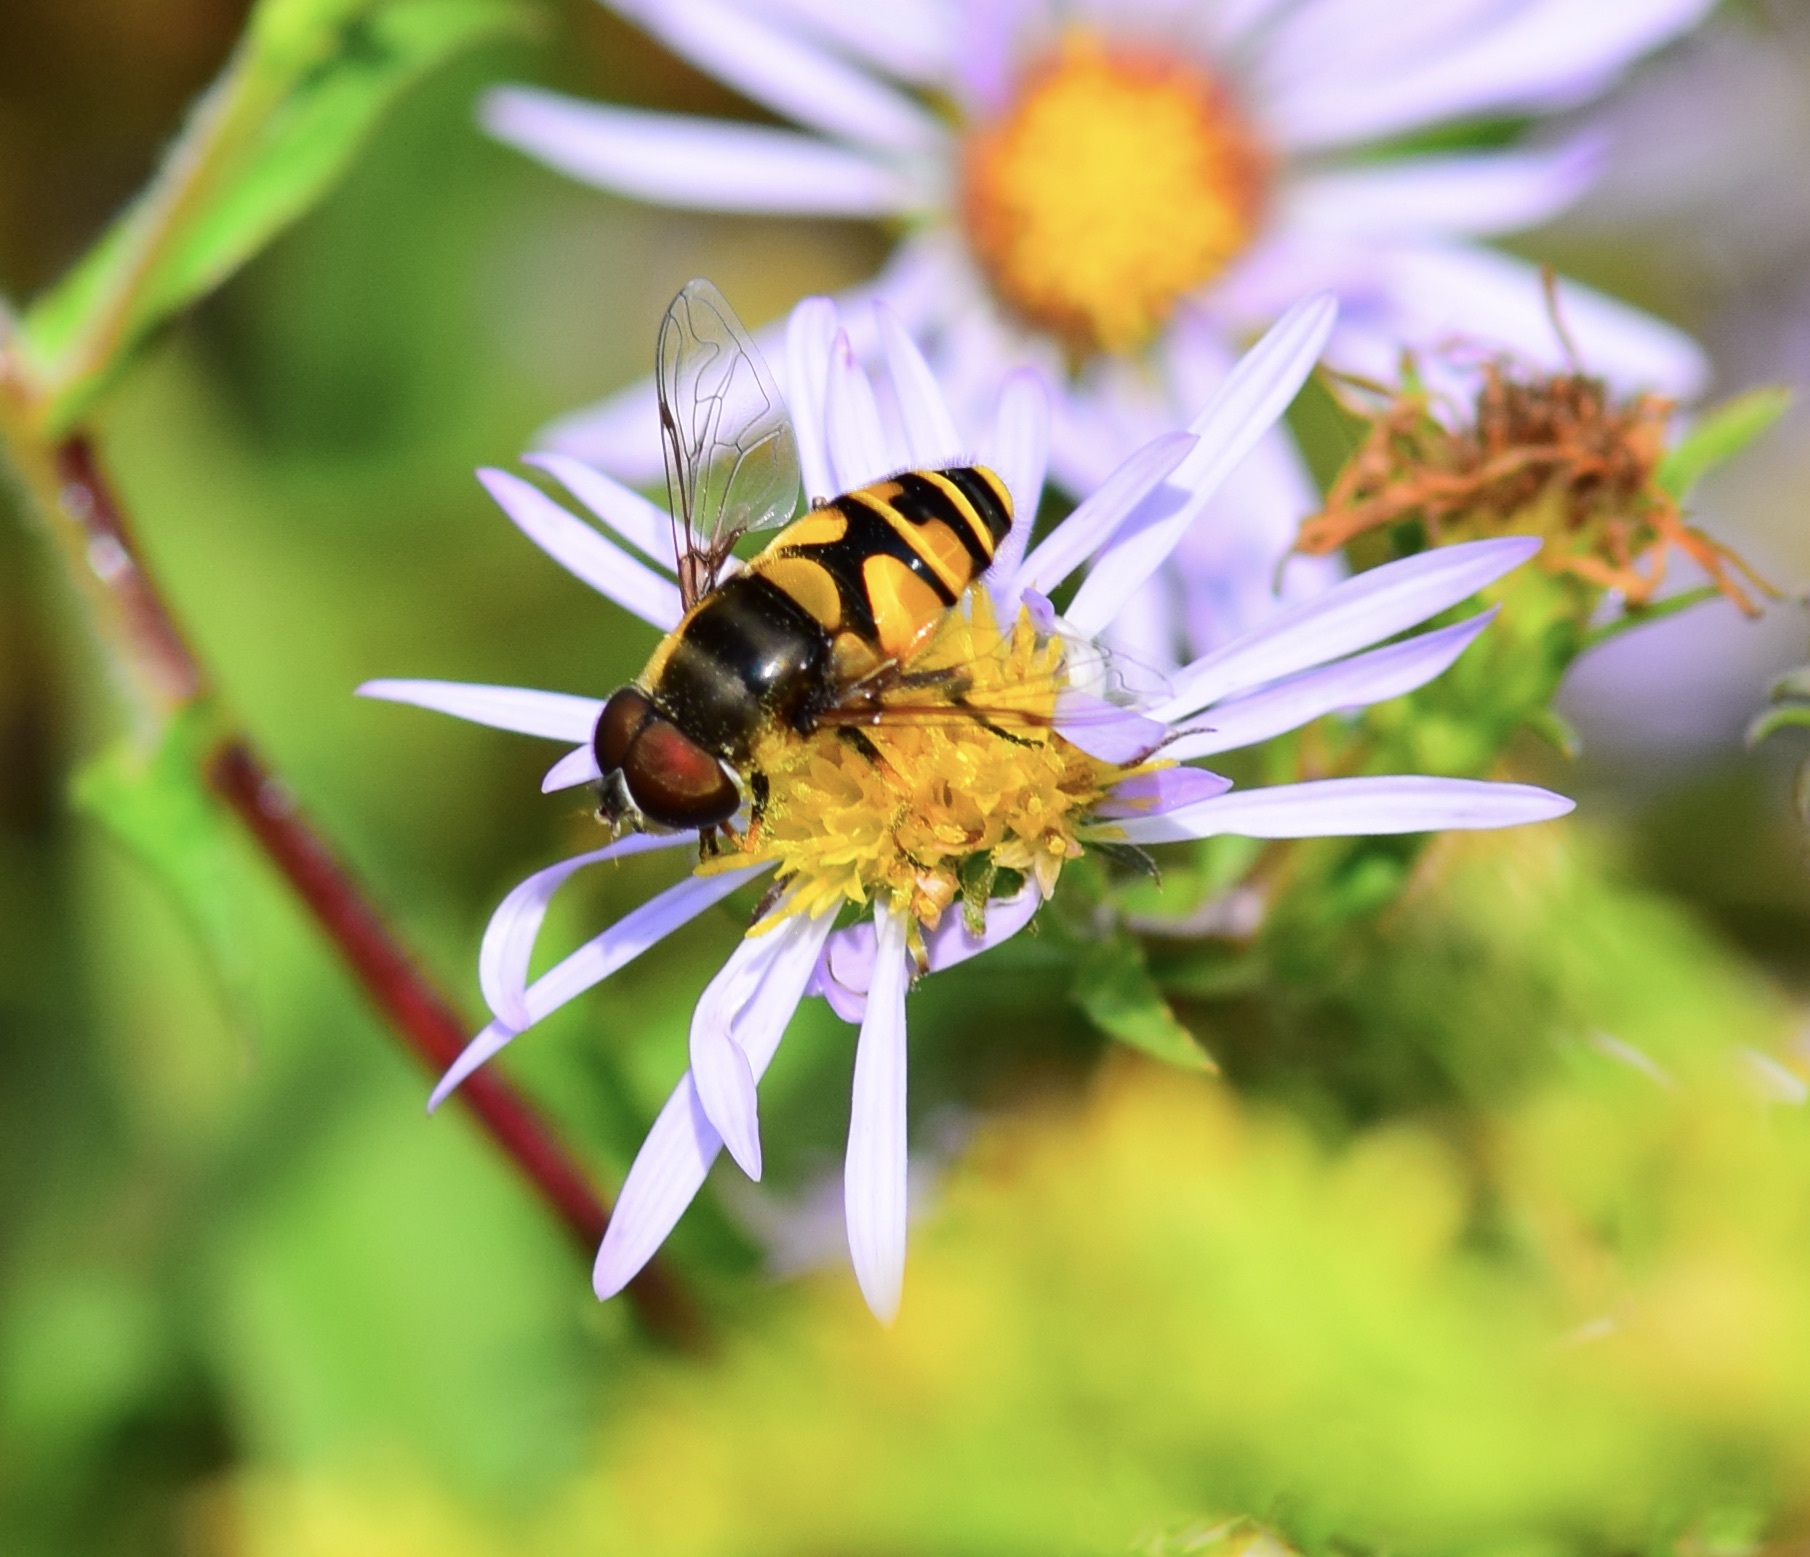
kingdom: Animalia
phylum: Arthropoda
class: Insecta
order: Diptera
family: Syrphidae
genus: Eristalis
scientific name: Eristalis transversa
